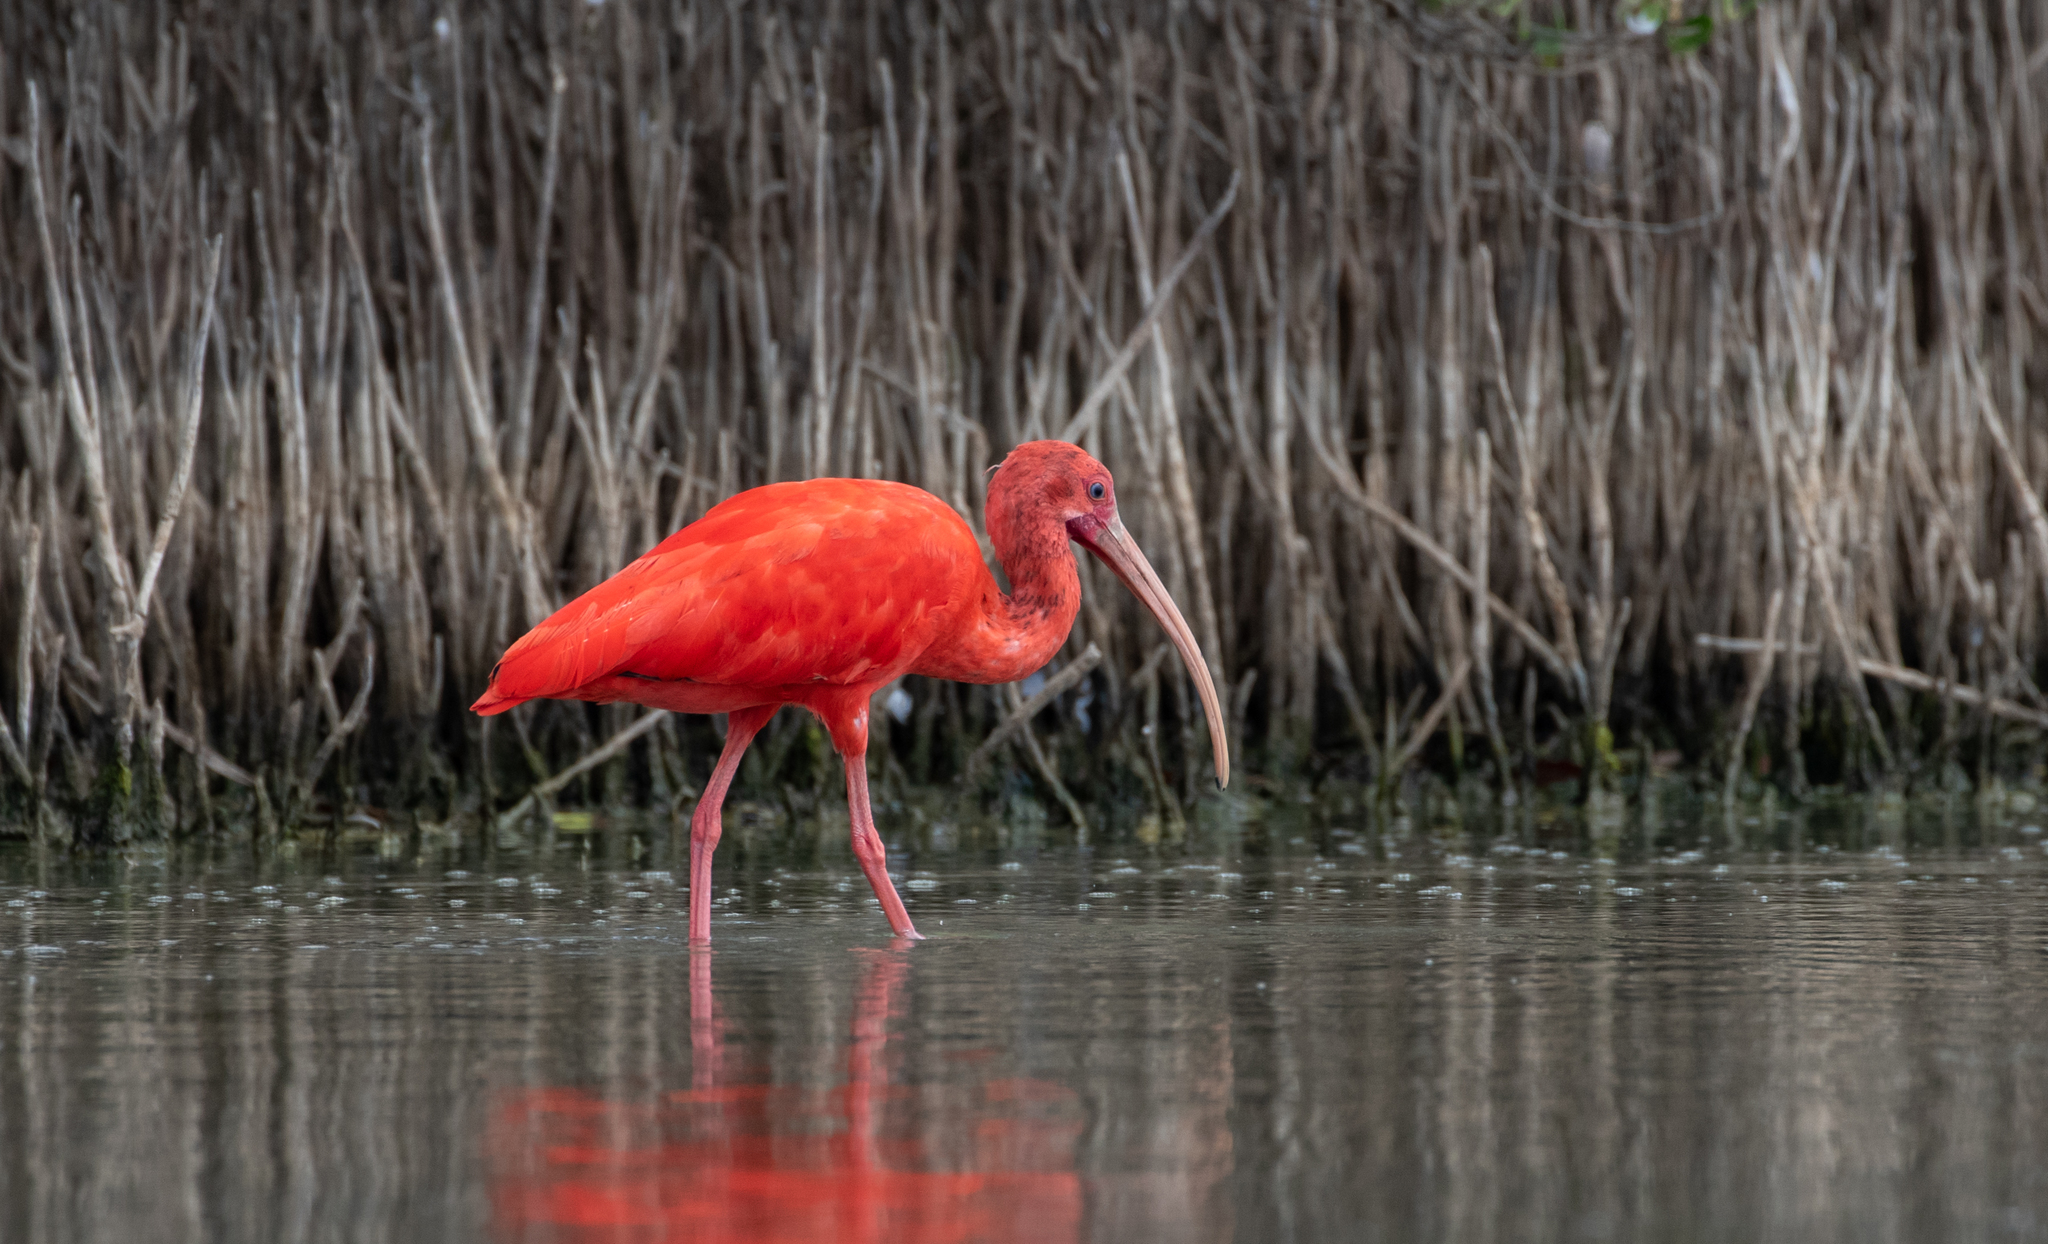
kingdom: Animalia
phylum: Chordata
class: Aves
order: Pelecaniformes
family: Threskiornithidae
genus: Eudocimus
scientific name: Eudocimus ruber
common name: Scarlet ibis
